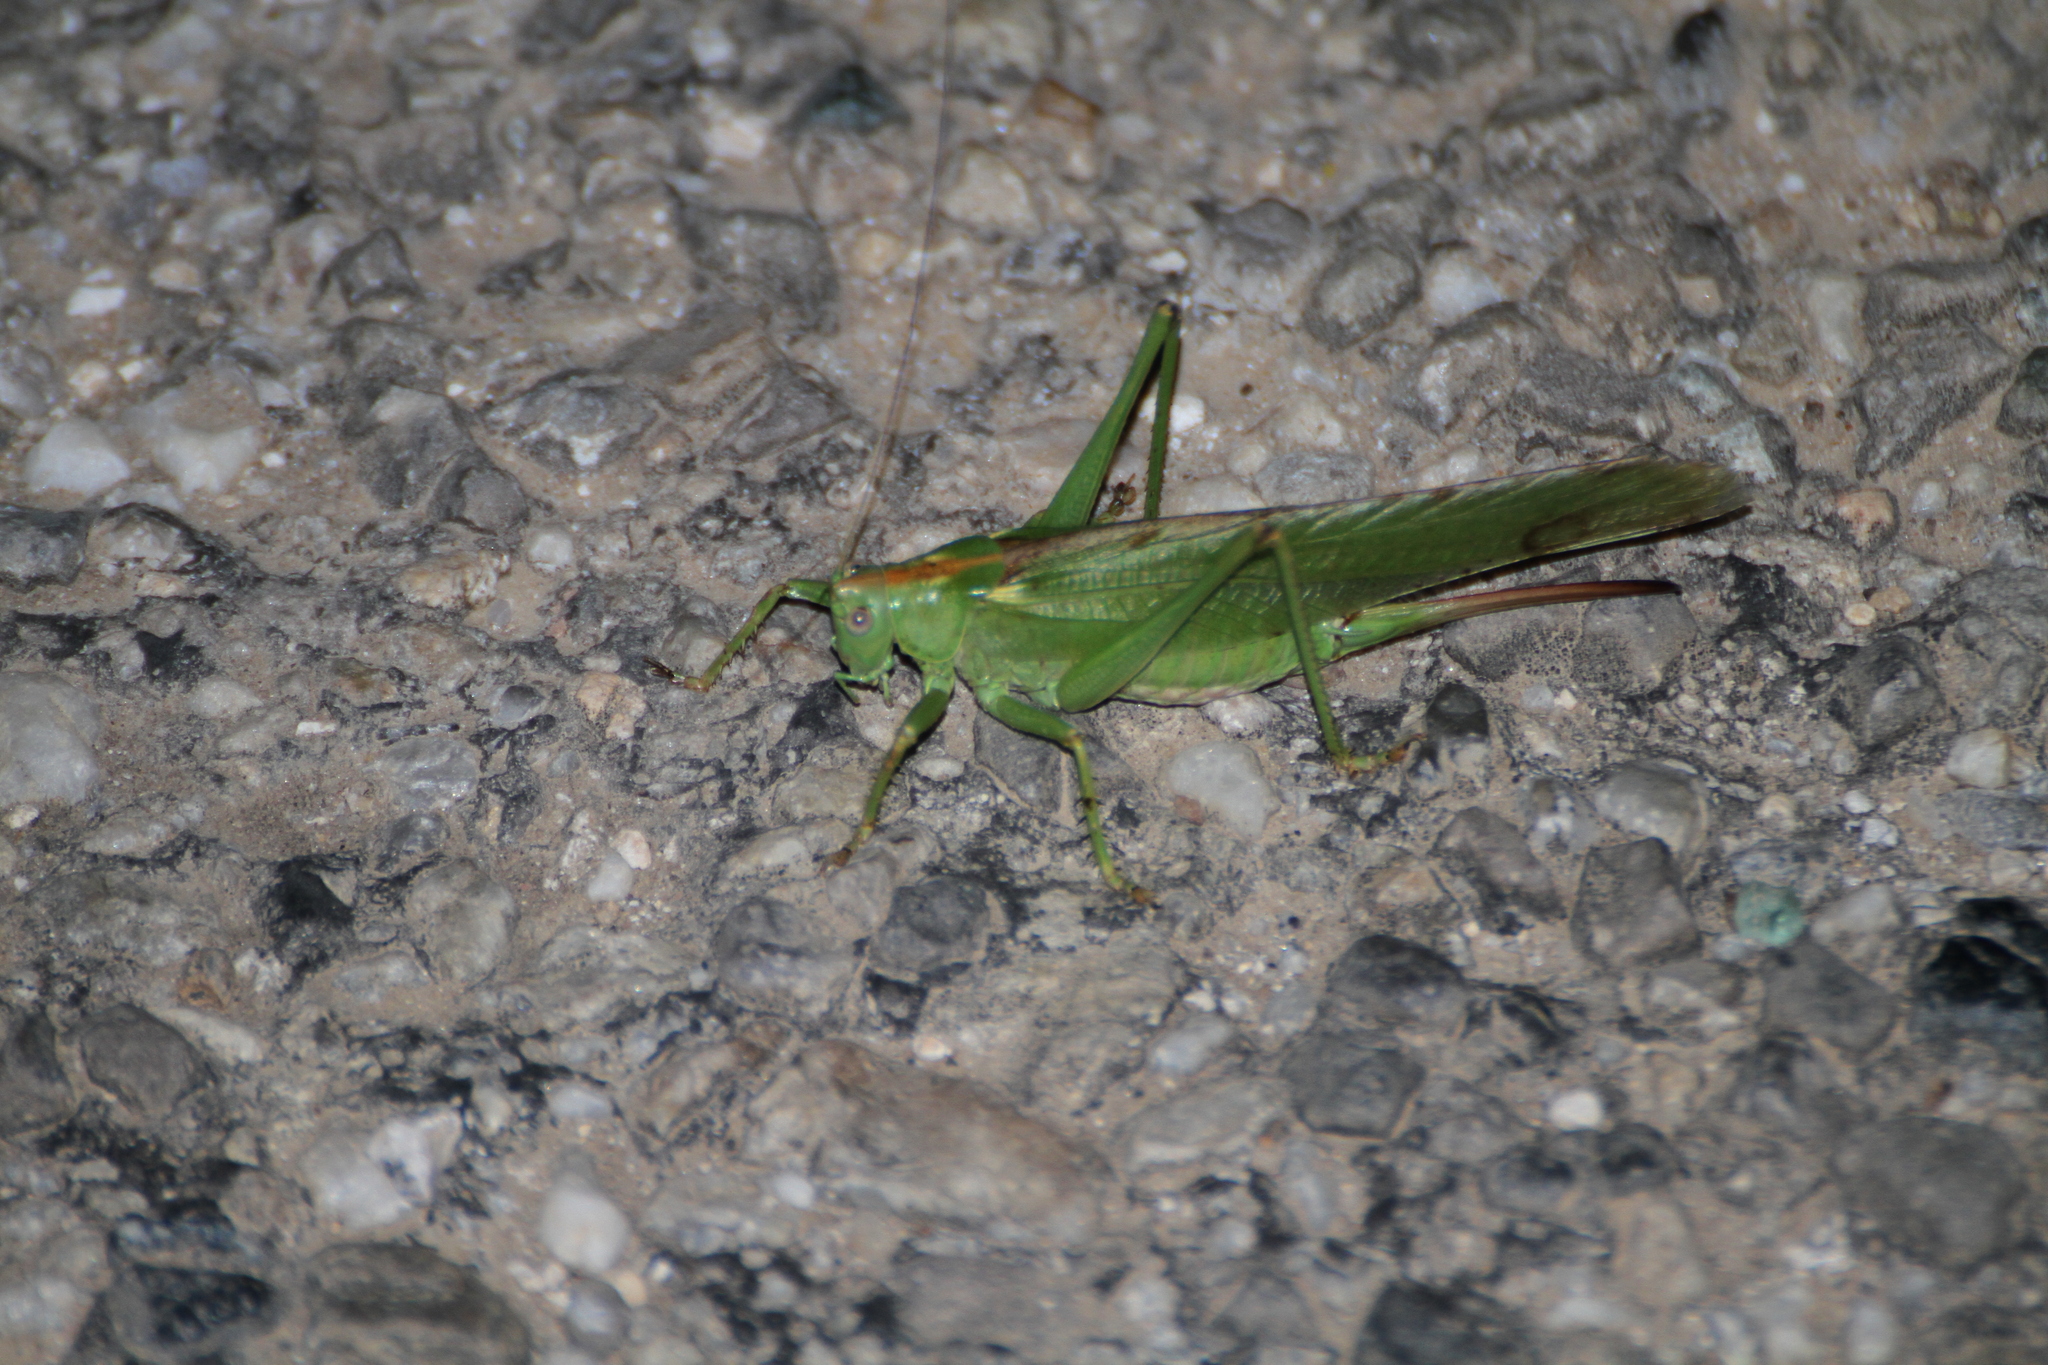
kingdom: Animalia
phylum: Arthropoda
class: Insecta
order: Orthoptera
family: Tettigoniidae
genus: Tettigonia
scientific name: Tettigonia viridissima
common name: Great green bush-cricket
